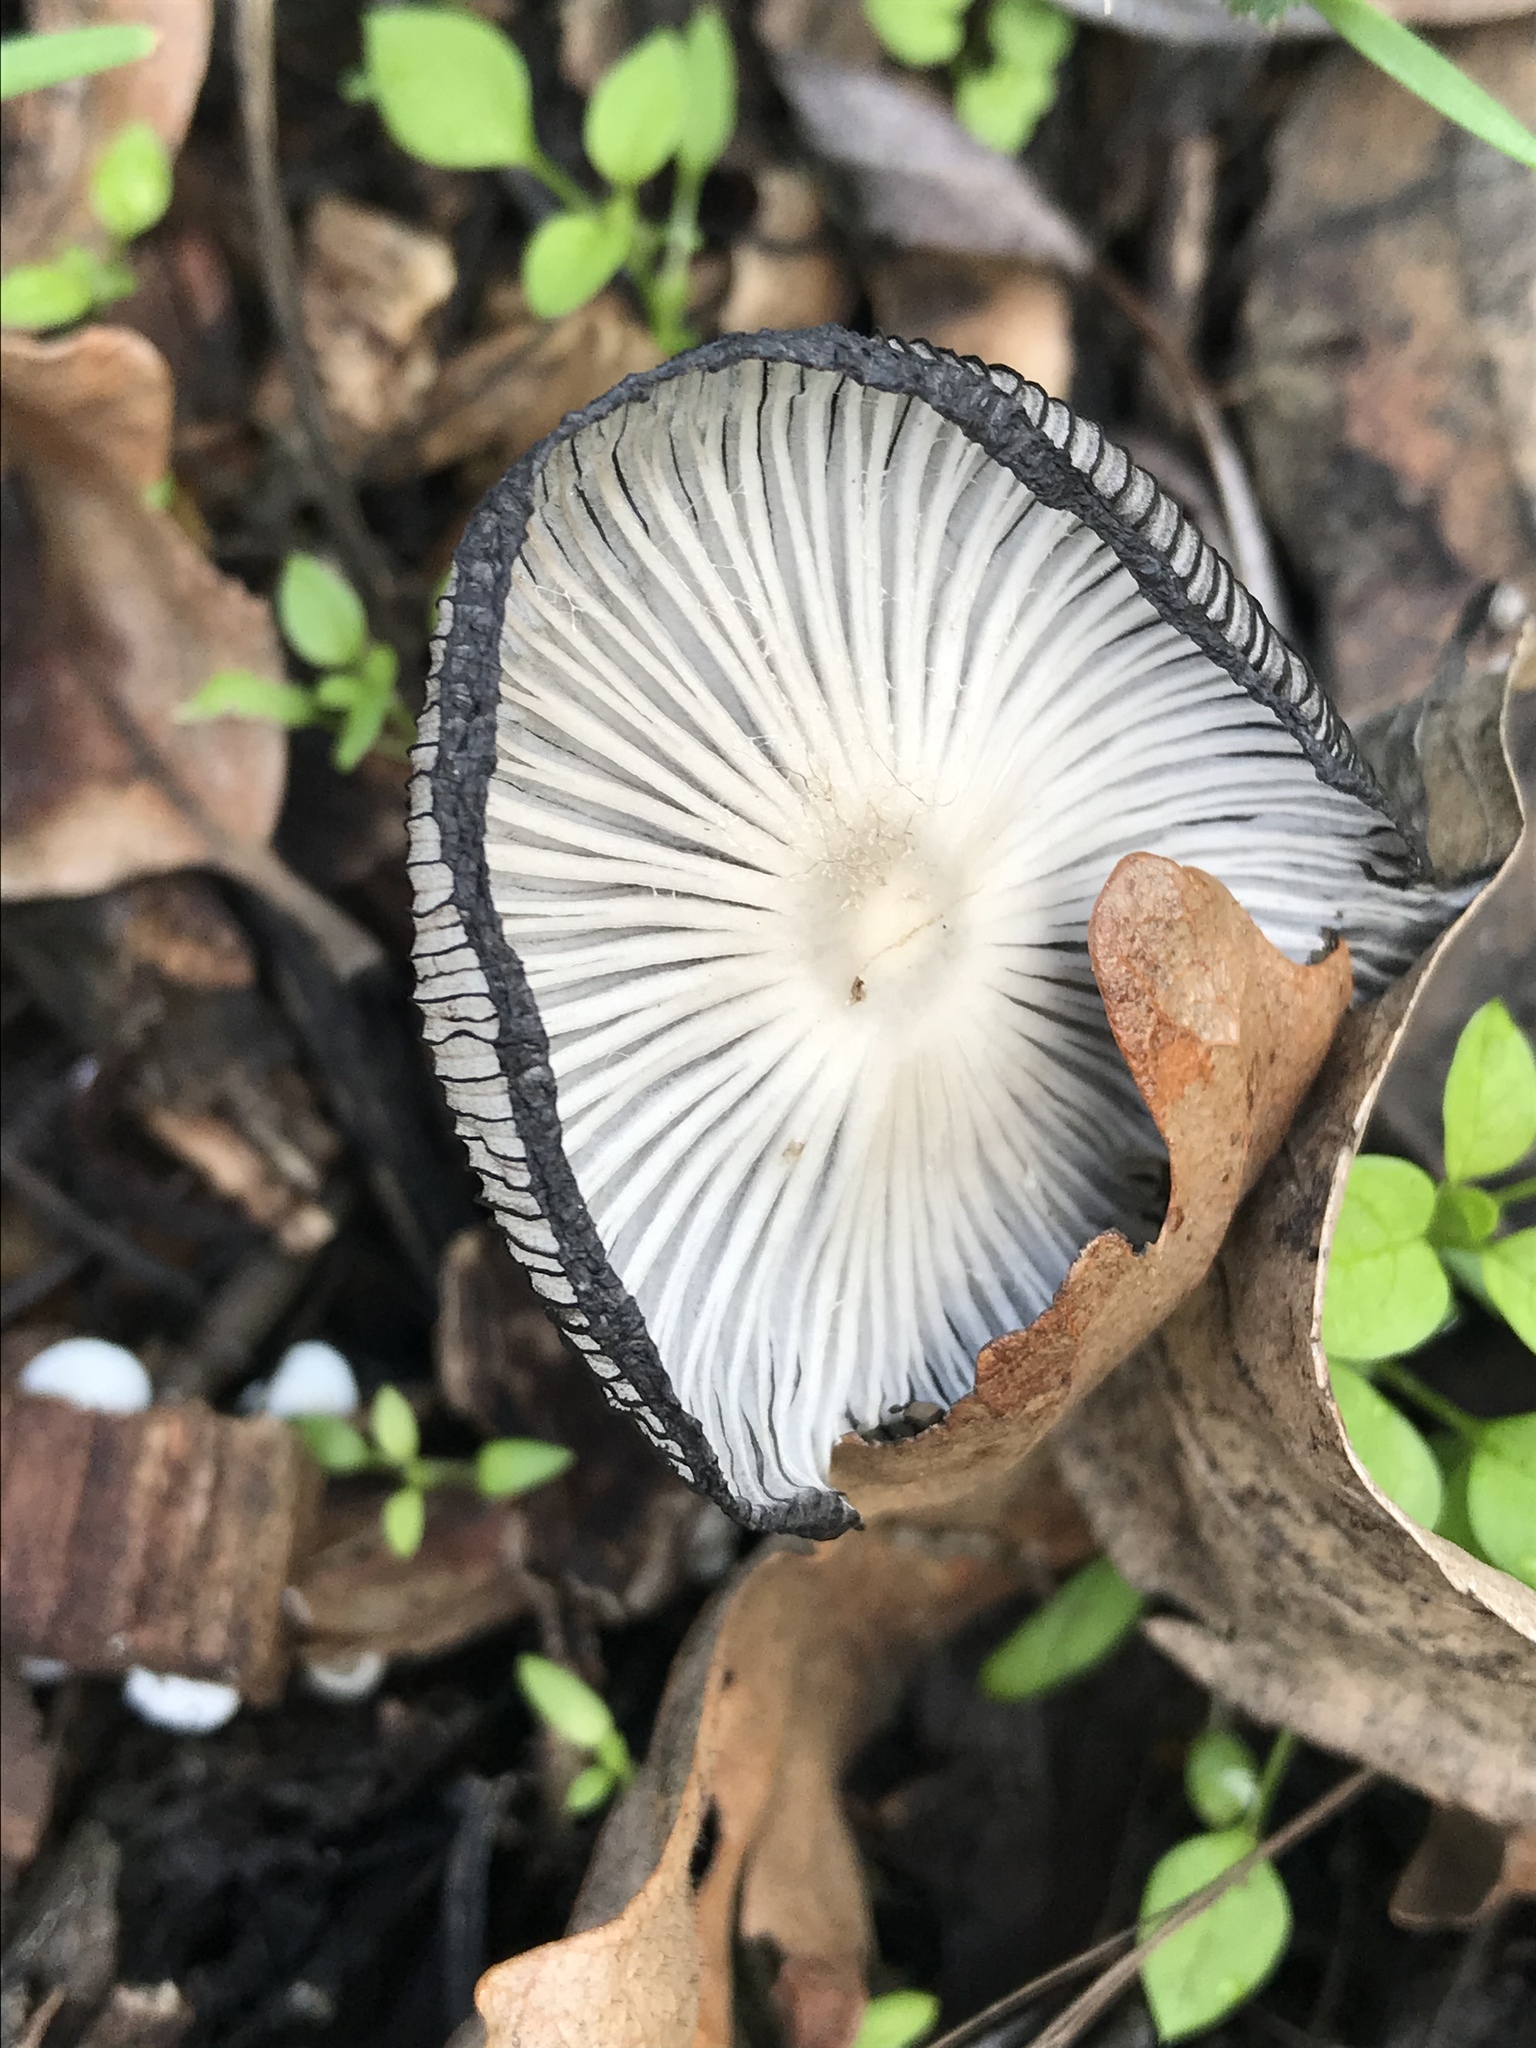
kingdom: Fungi
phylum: Basidiomycota
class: Agaricomycetes
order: Agaricales
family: Psathyrellaceae
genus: Coprinopsis
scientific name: Coprinopsis lagopus
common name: Hare'sfoot inkcap
